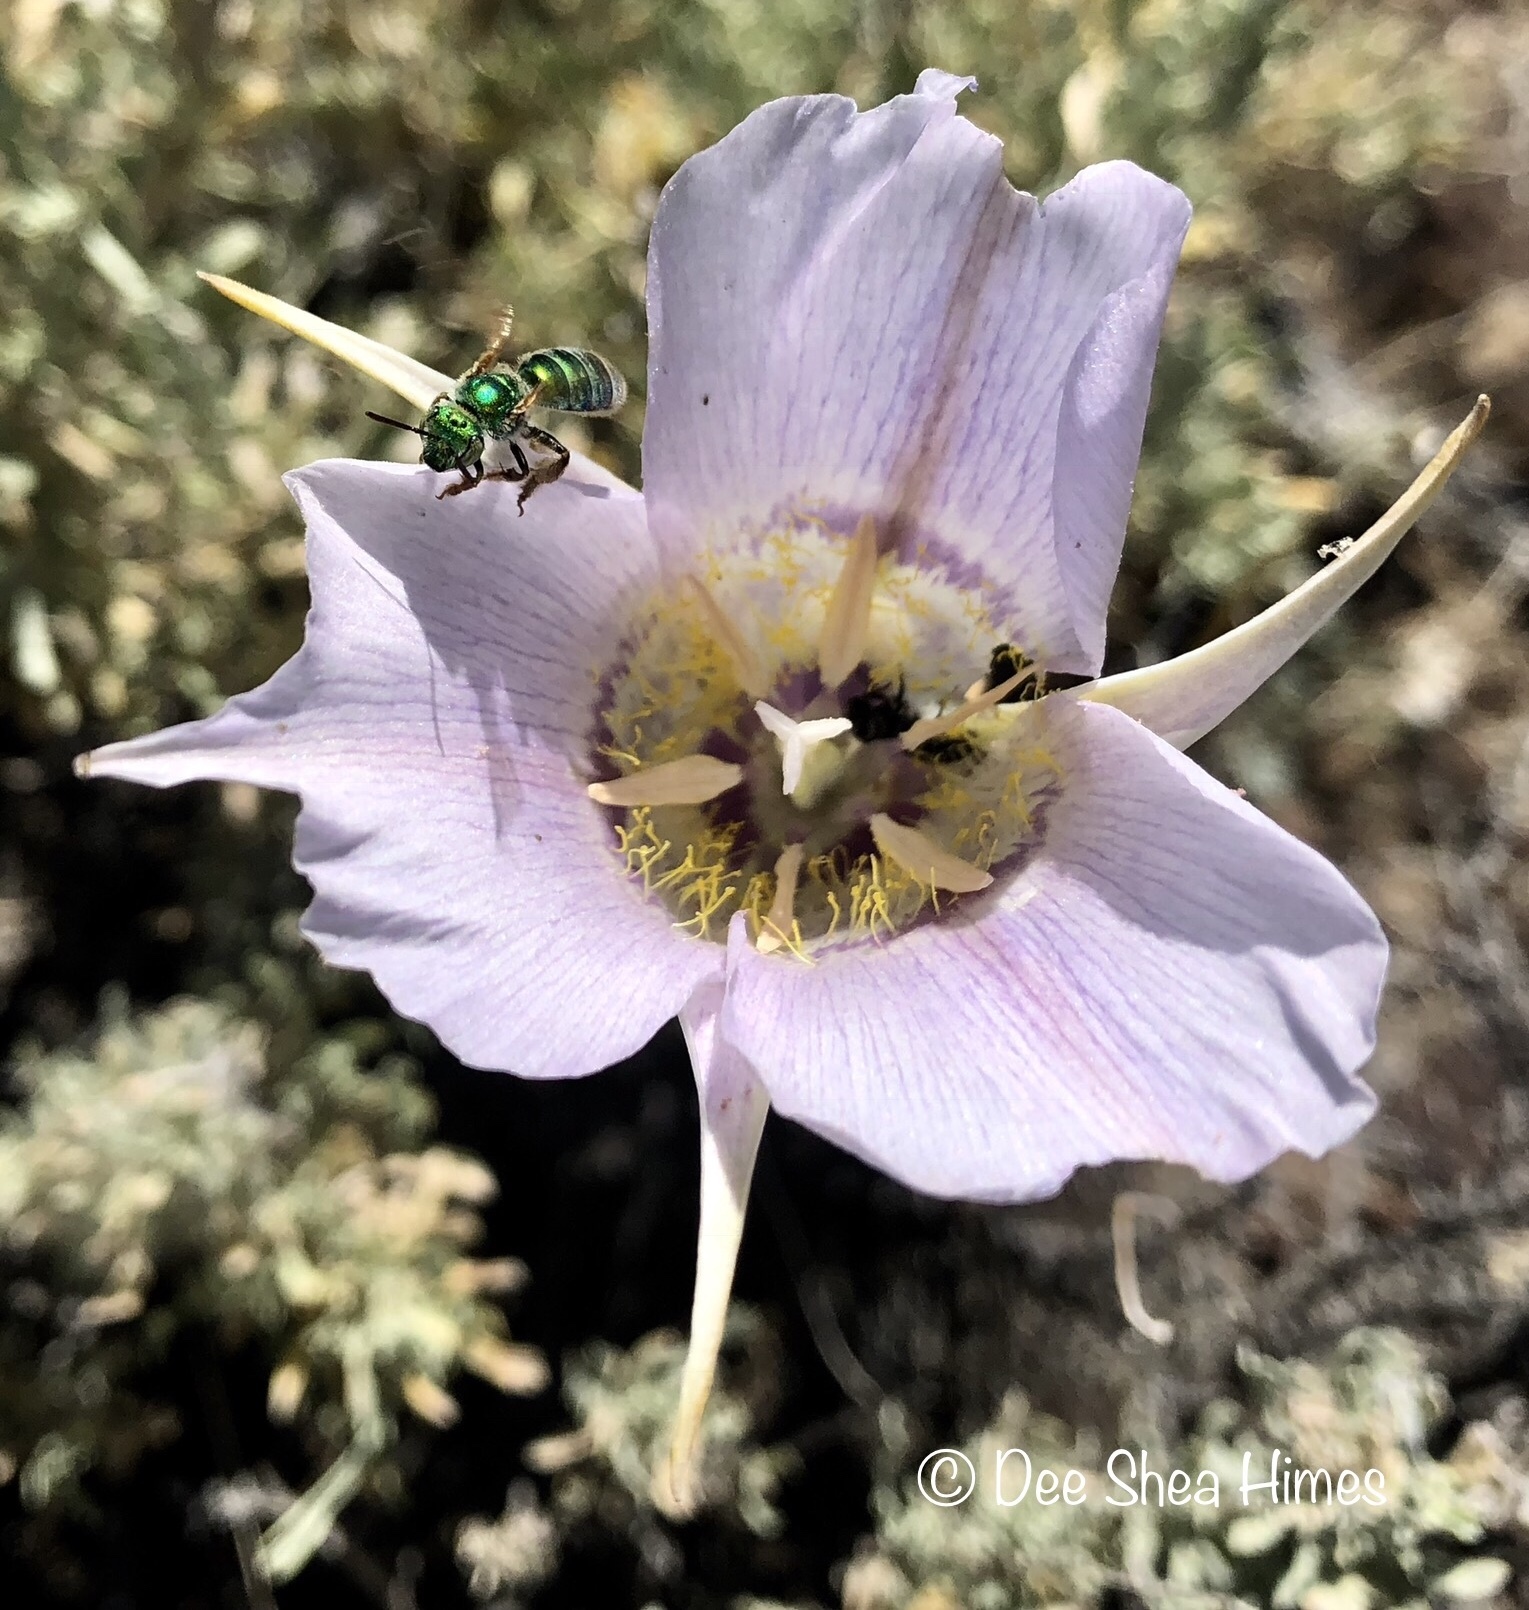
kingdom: Plantae
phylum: Tracheophyta
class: Liliopsida
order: Liliales
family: Liliaceae
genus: Calochortus
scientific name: Calochortus macrocarpus
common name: Green-band mariposa lily
